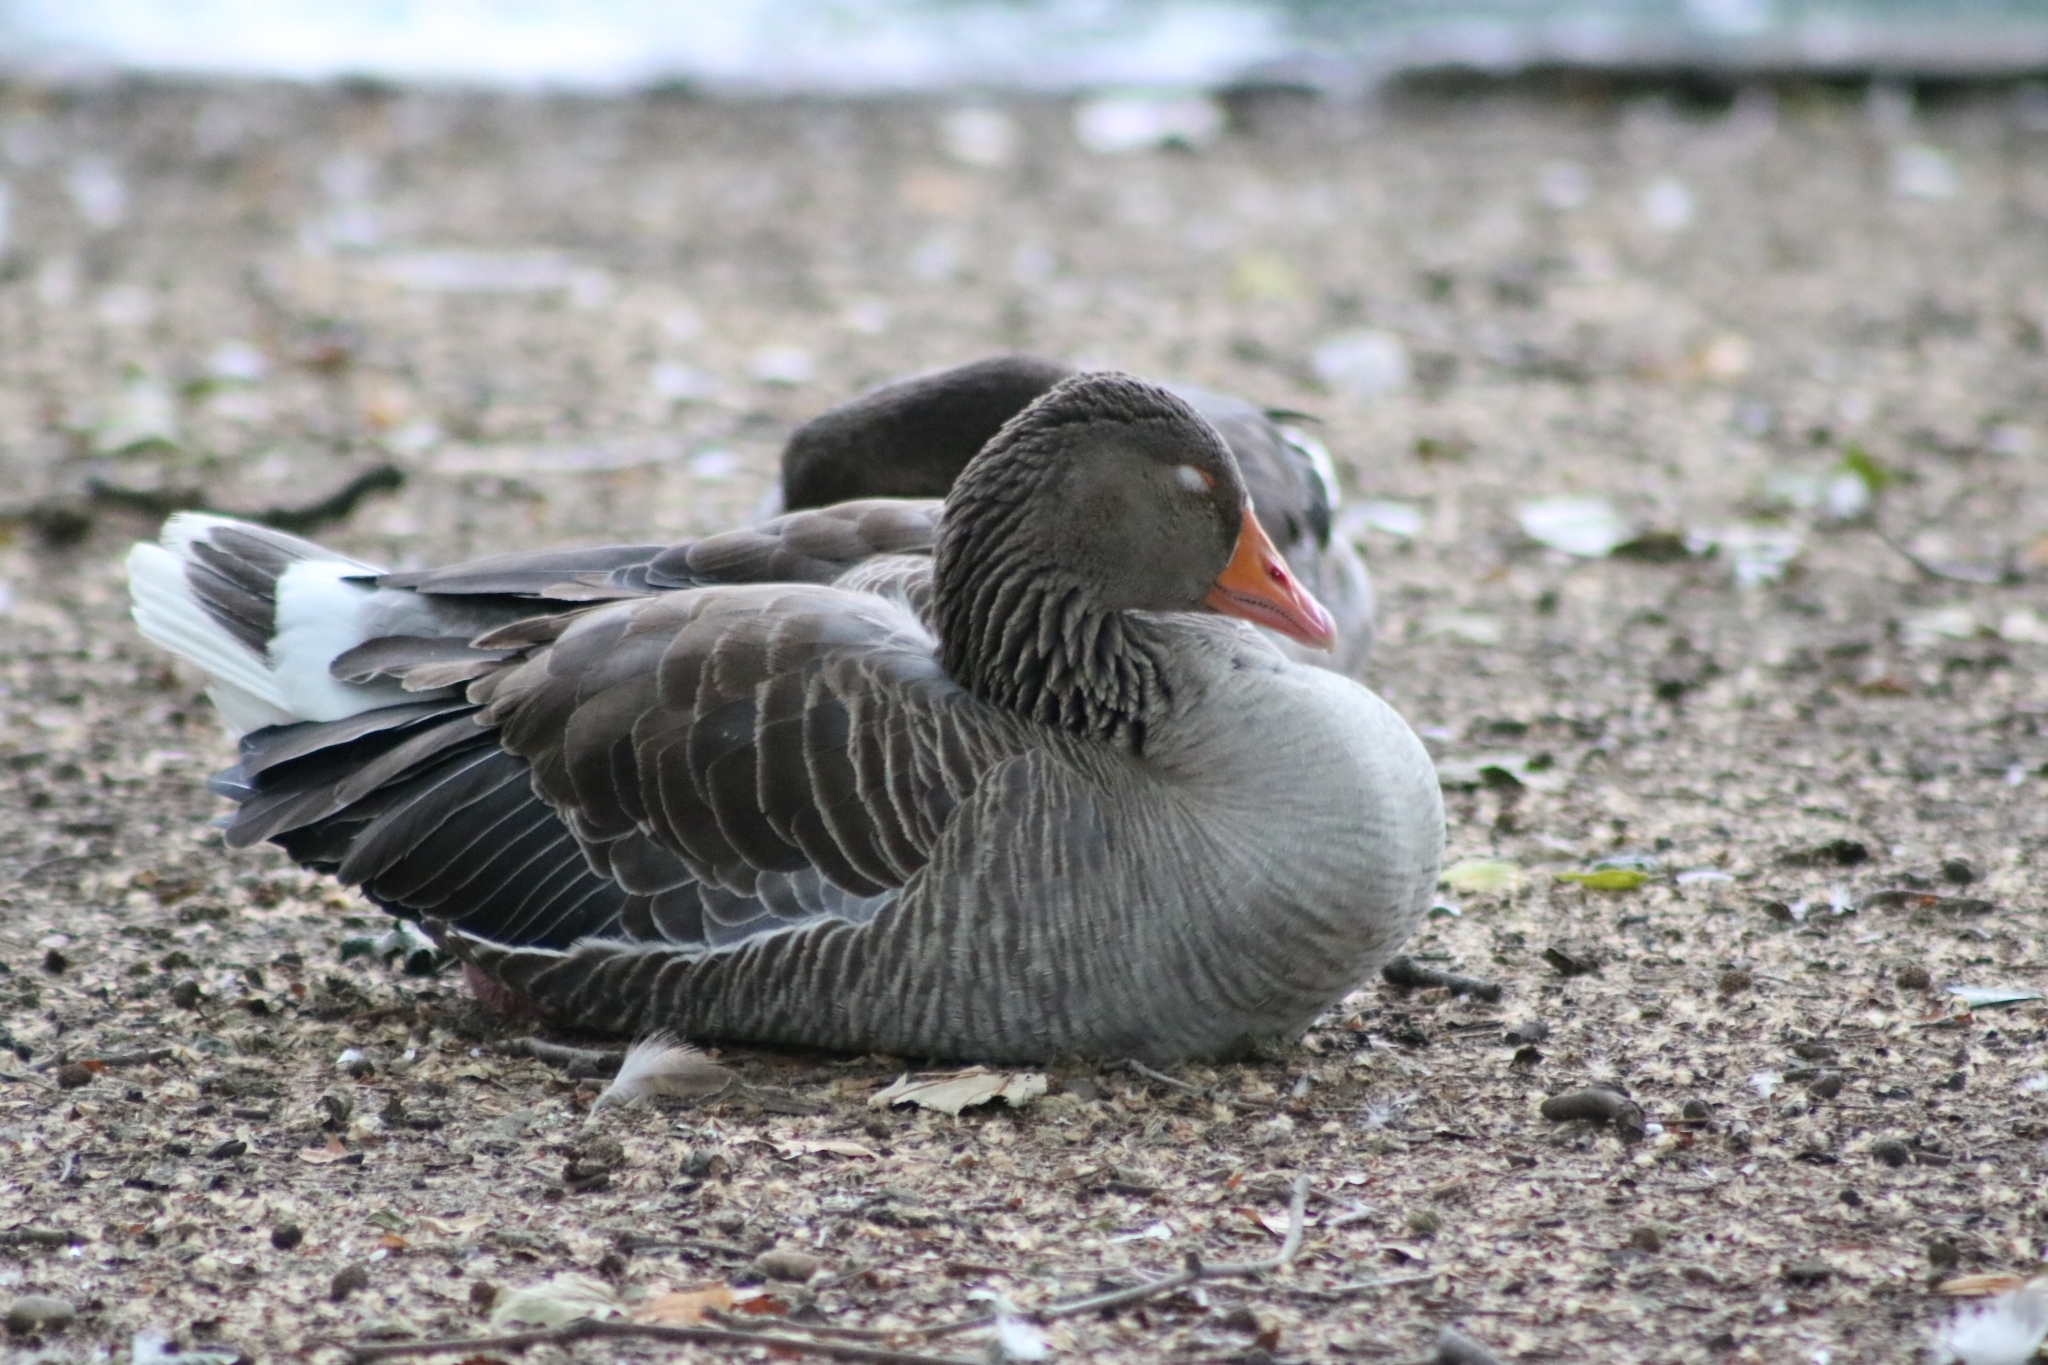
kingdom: Animalia
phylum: Chordata
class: Aves
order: Anseriformes
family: Anatidae
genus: Anser
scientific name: Anser anser
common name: Greylag goose
